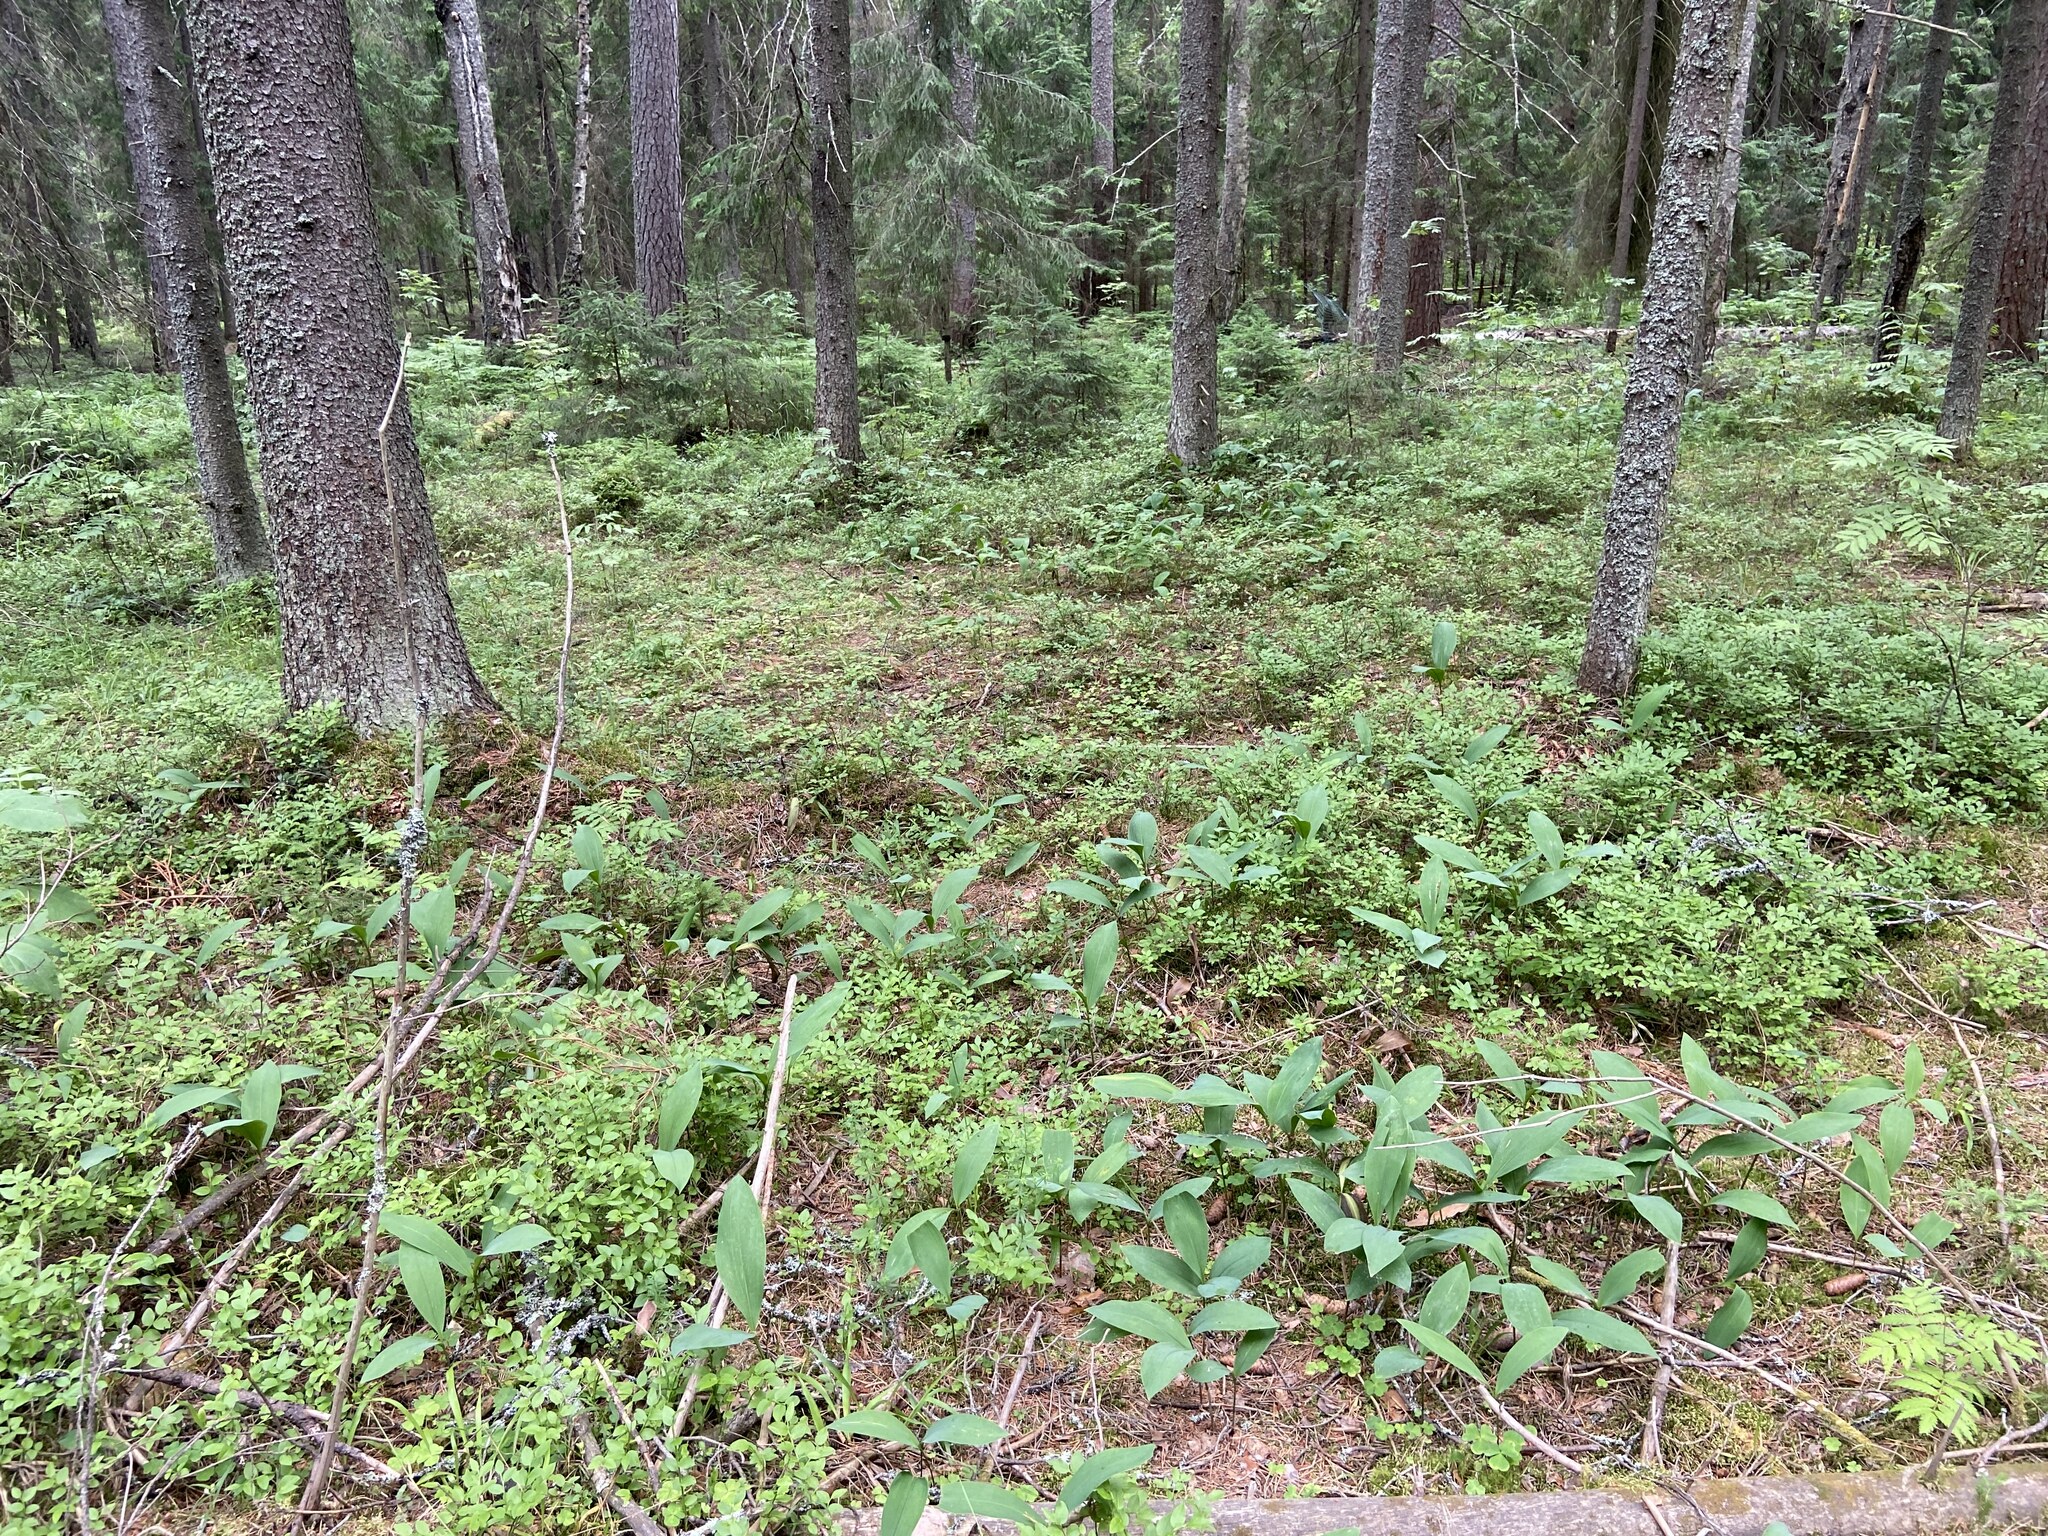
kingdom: Plantae
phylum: Tracheophyta
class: Liliopsida
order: Asparagales
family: Asparagaceae
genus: Convallaria
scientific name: Convallaria majalis
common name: Lily-of-the-valley
